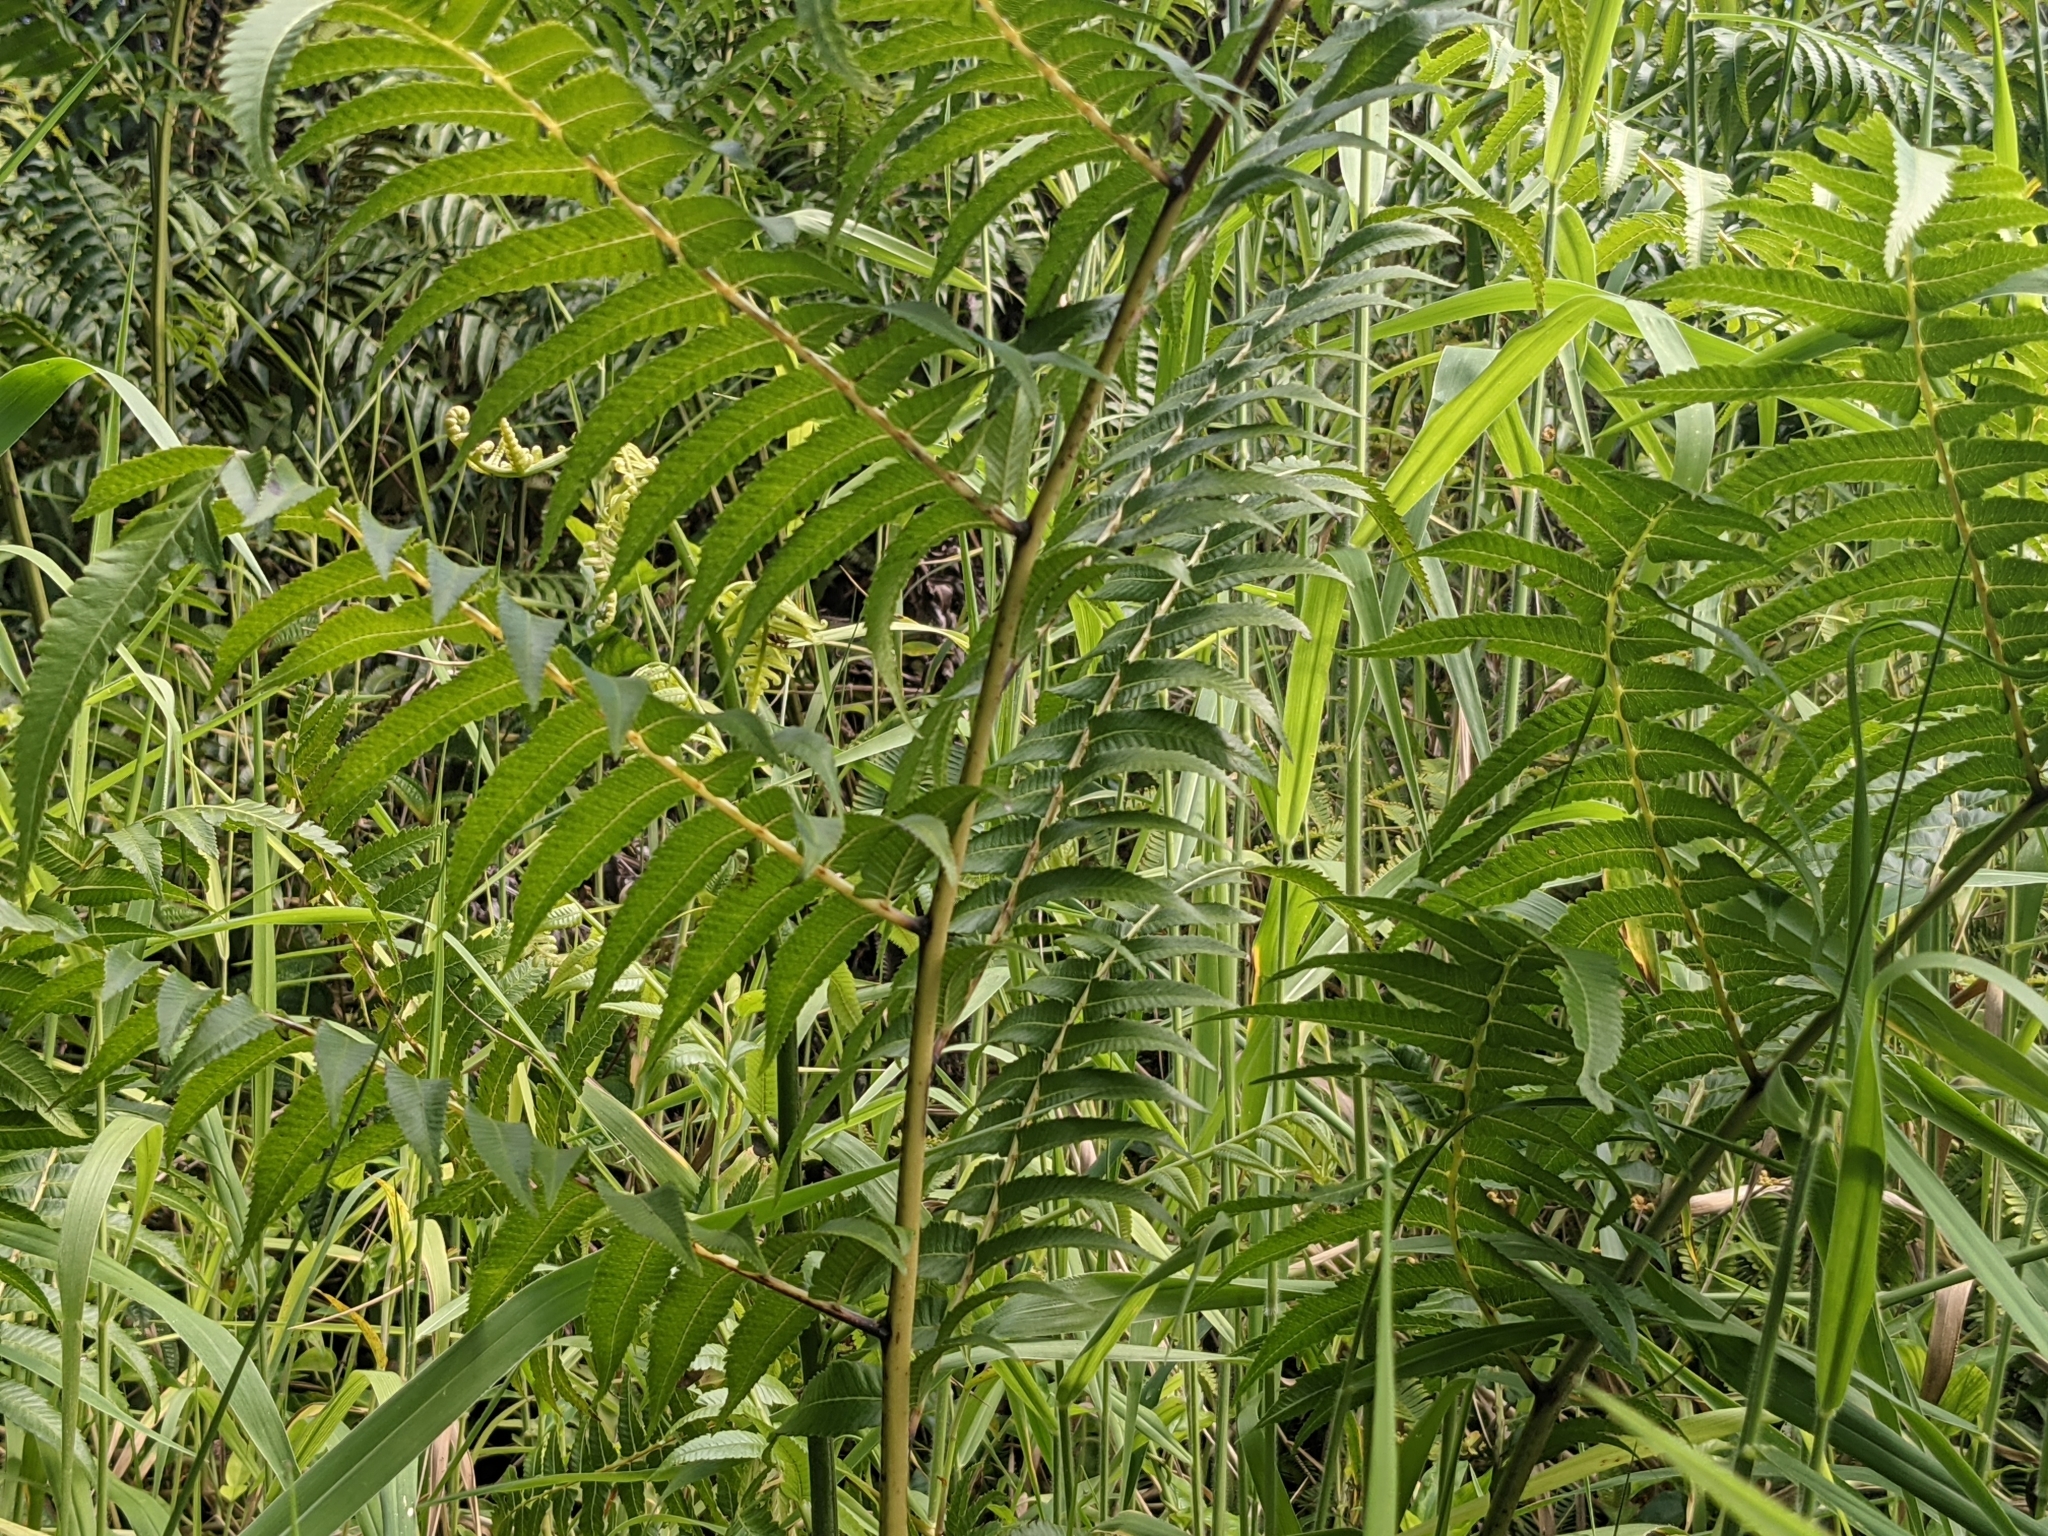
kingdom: Plantae
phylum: Tracheophyta
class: Polypodiopsida
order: Polypodiales
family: Athyriaceae
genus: Diplazium
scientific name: Diplazium esculentum
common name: Vegetable fern
